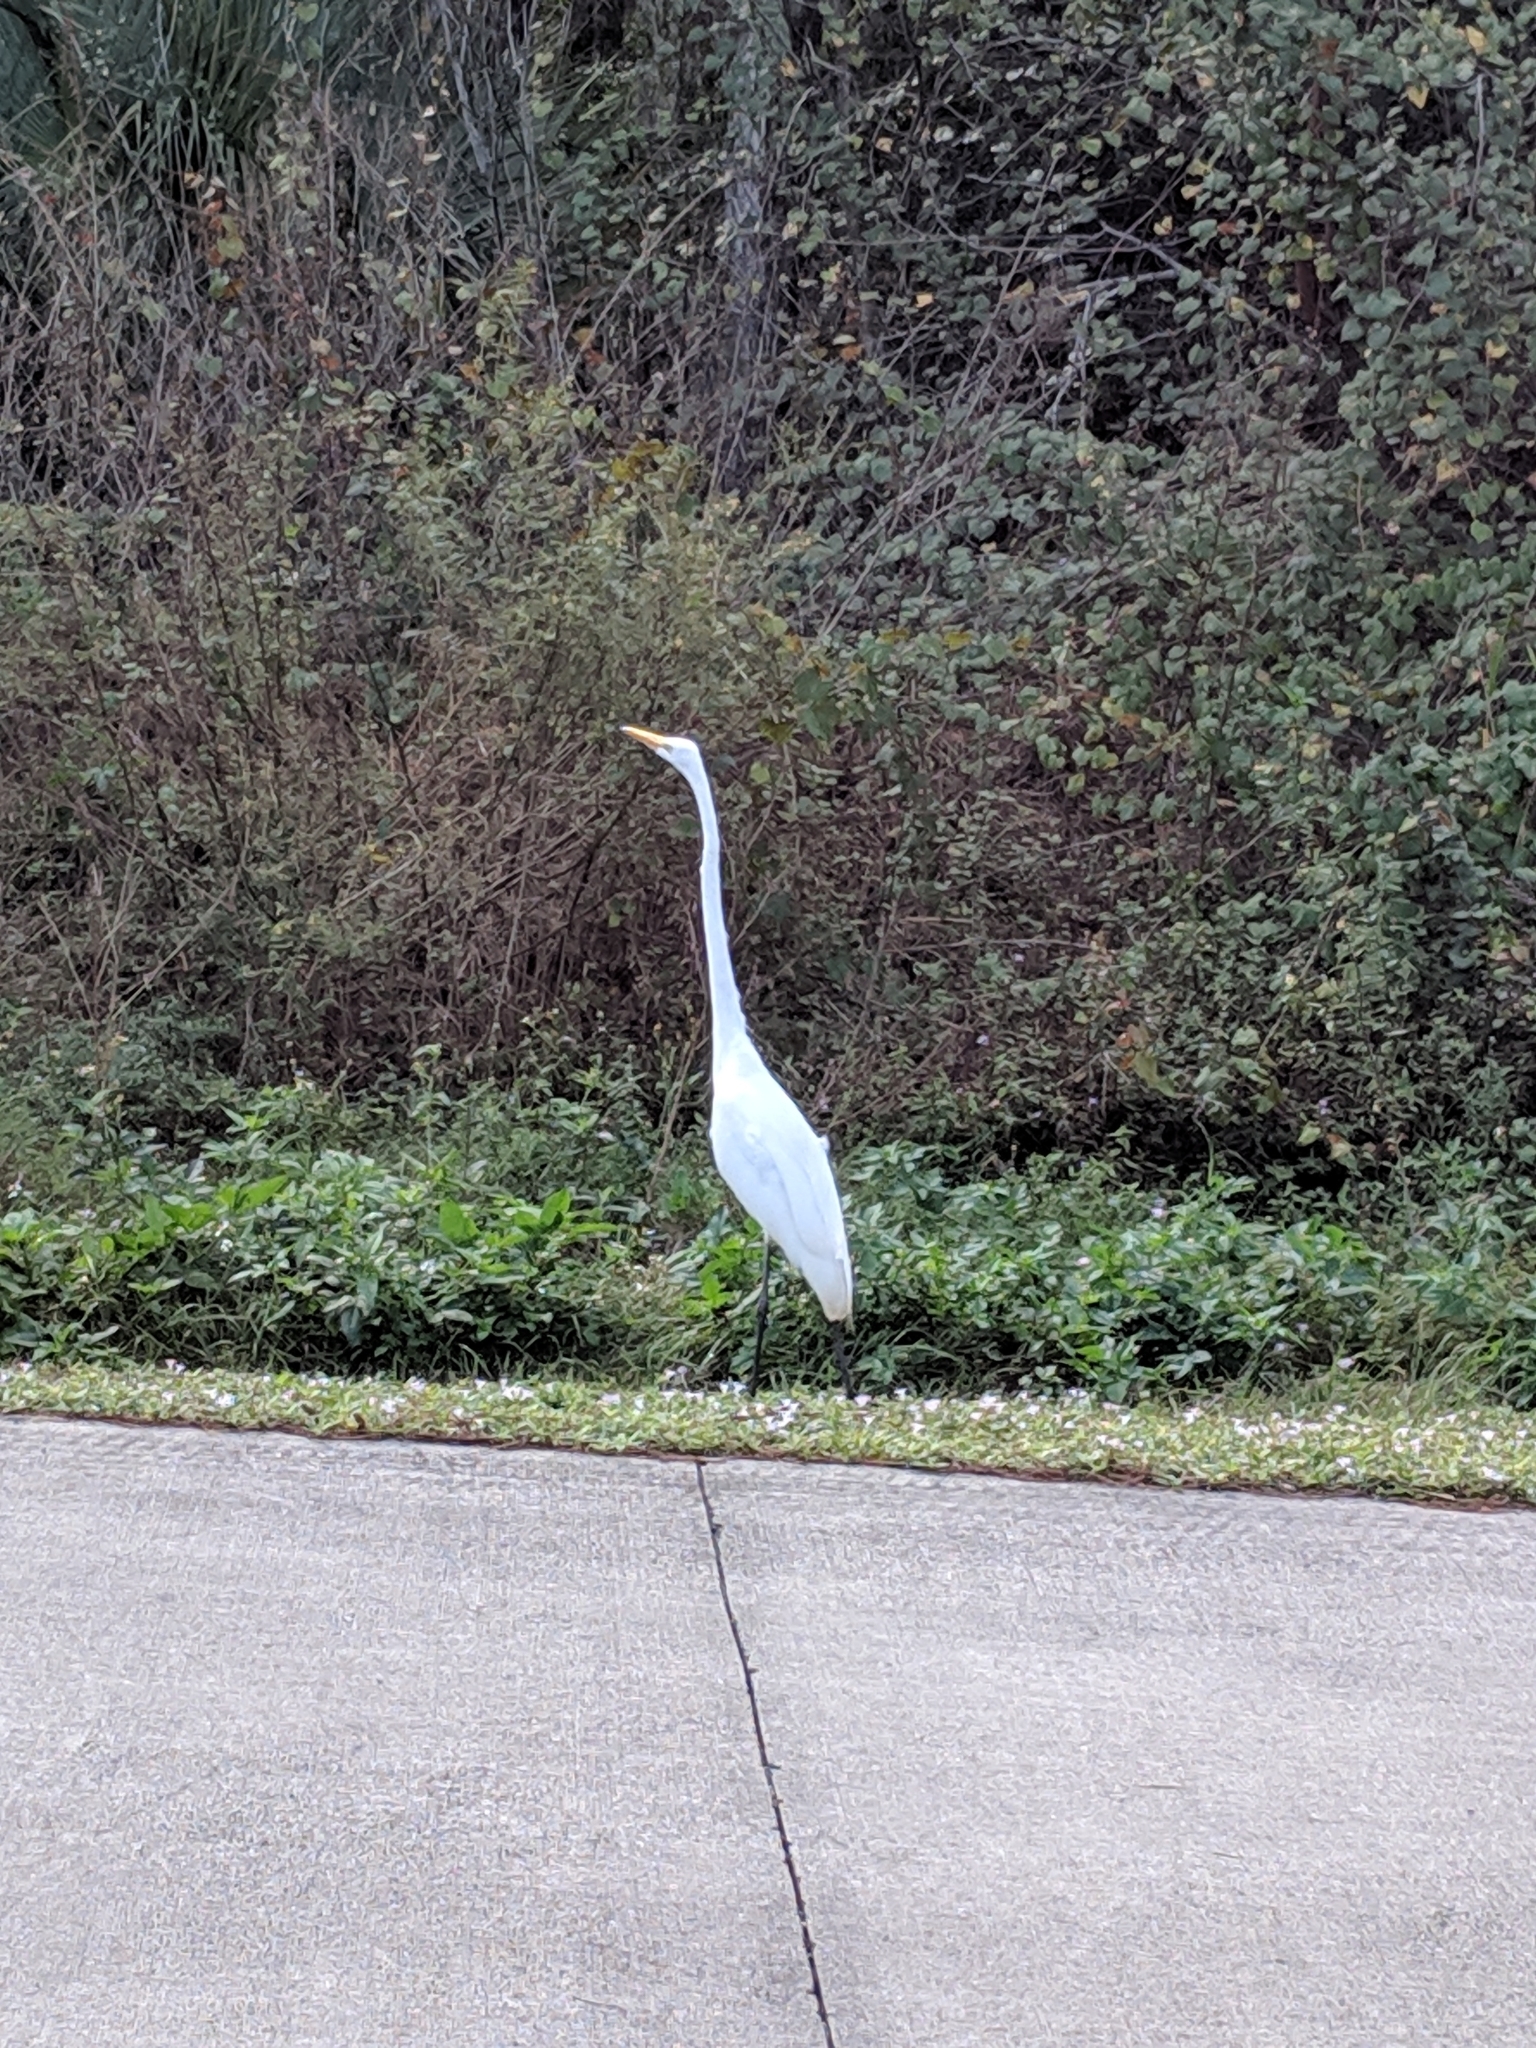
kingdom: Animalia
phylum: Chordata
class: Aves
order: Pelecaniformes
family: Ardeidae
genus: Ardea
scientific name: Ardea alba
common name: Great egret
